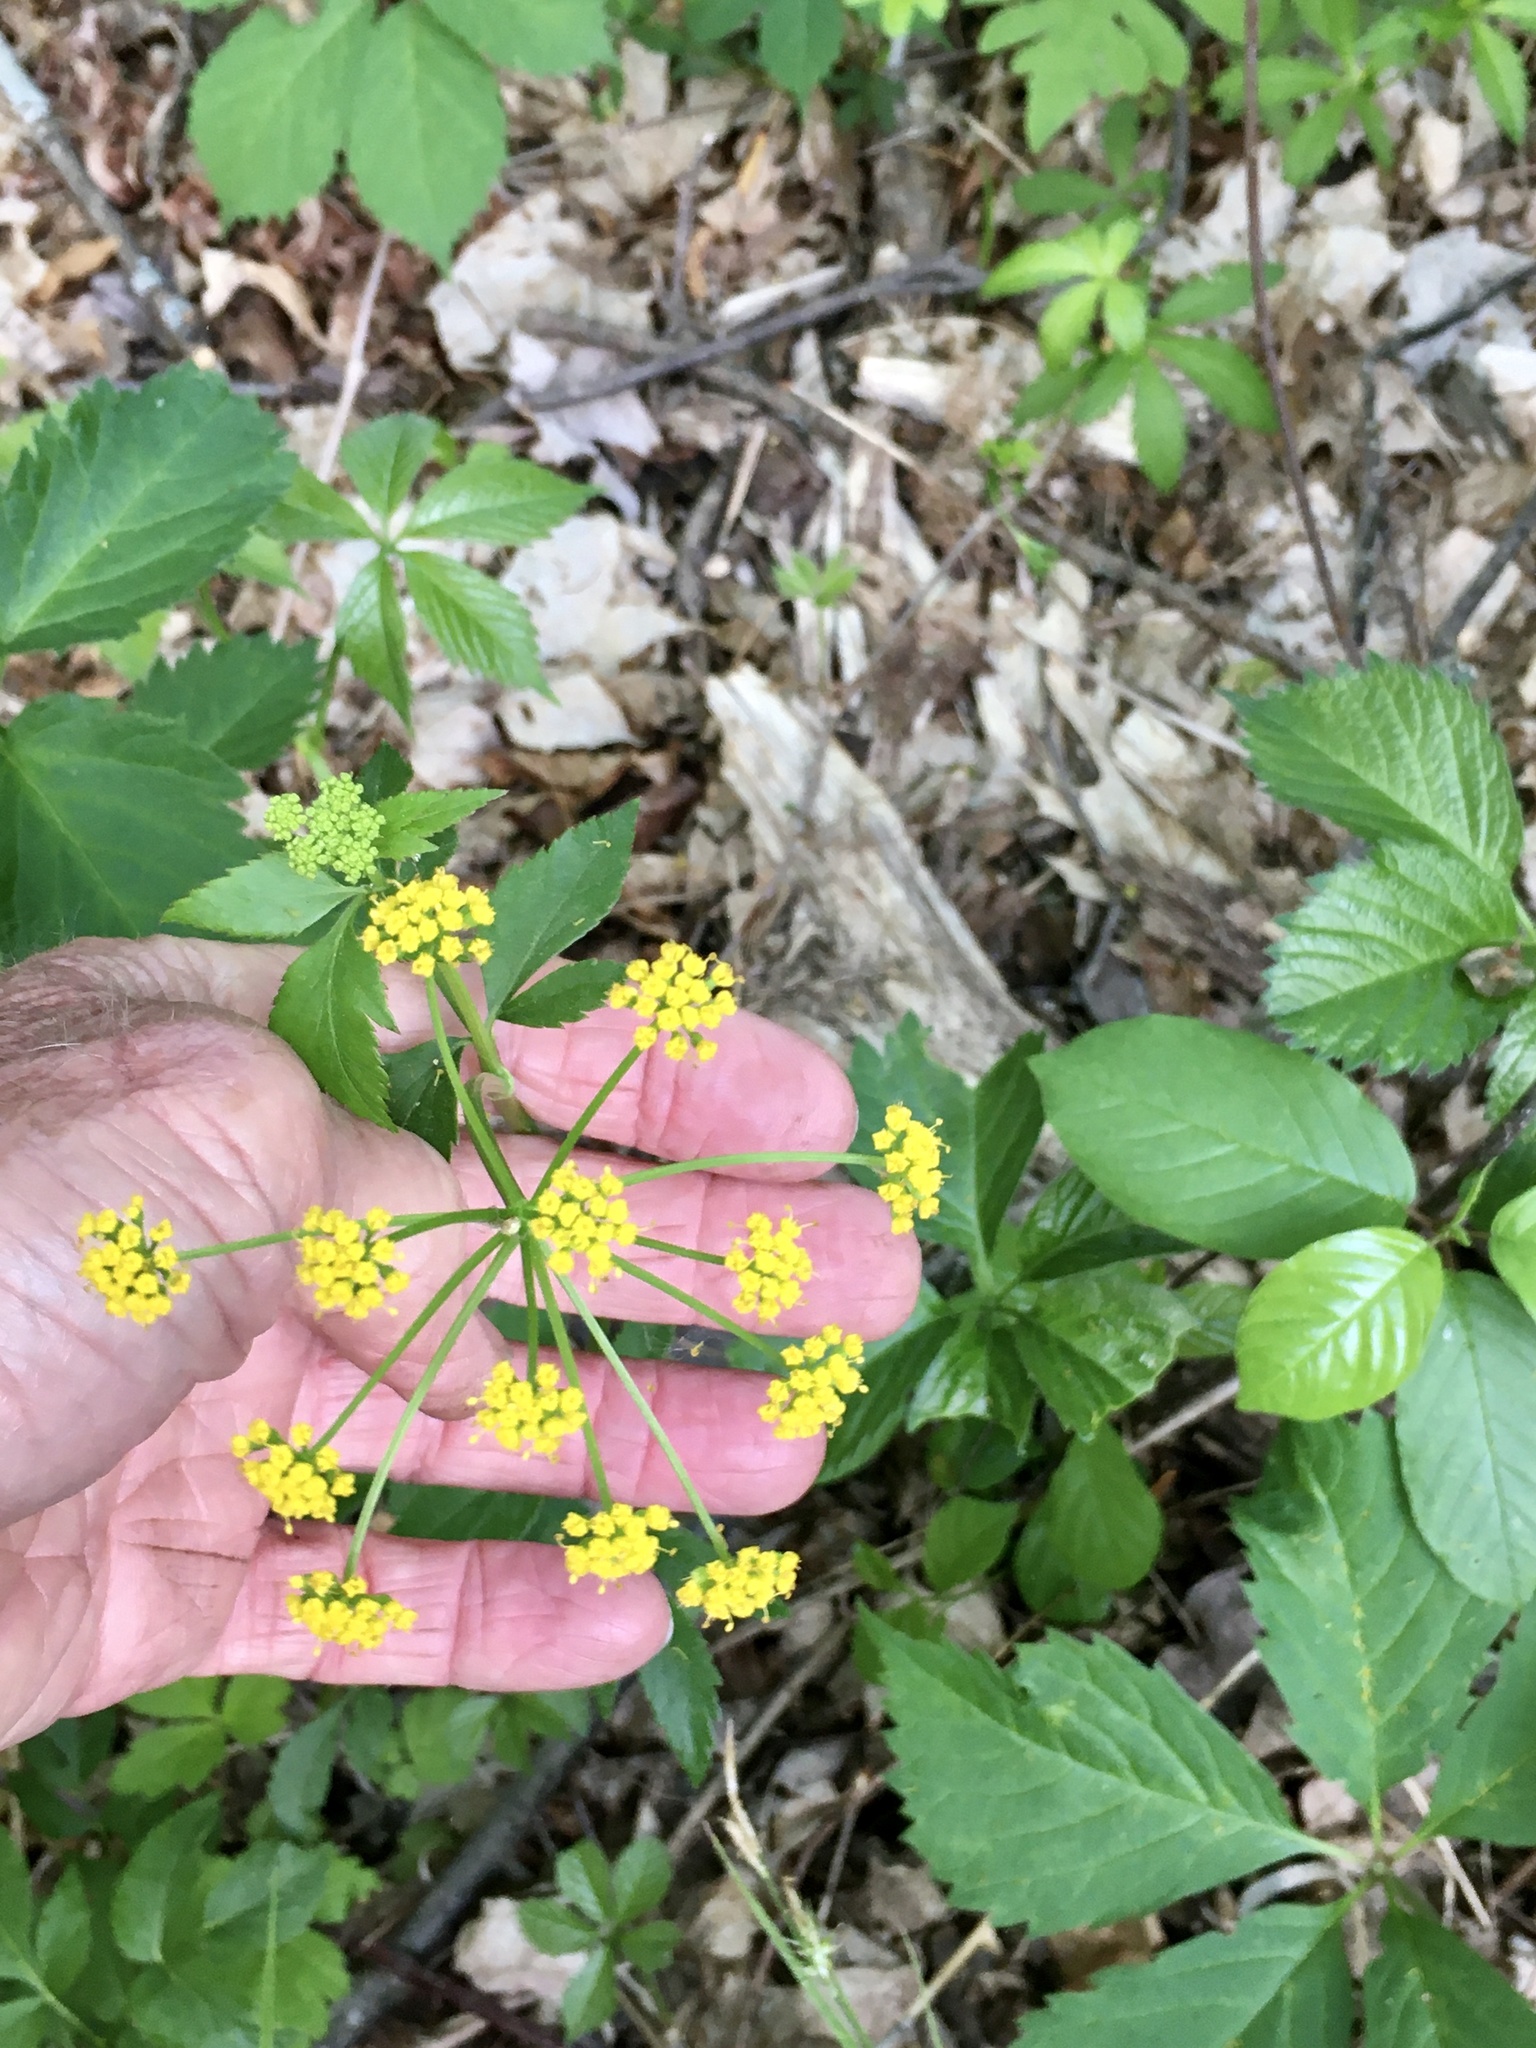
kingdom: Plantae
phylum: Tracheophyta
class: Magnoliopsida
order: Apiales
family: Apiaceae
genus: Zizia
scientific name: Zizia aurea
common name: Golden alexanders
